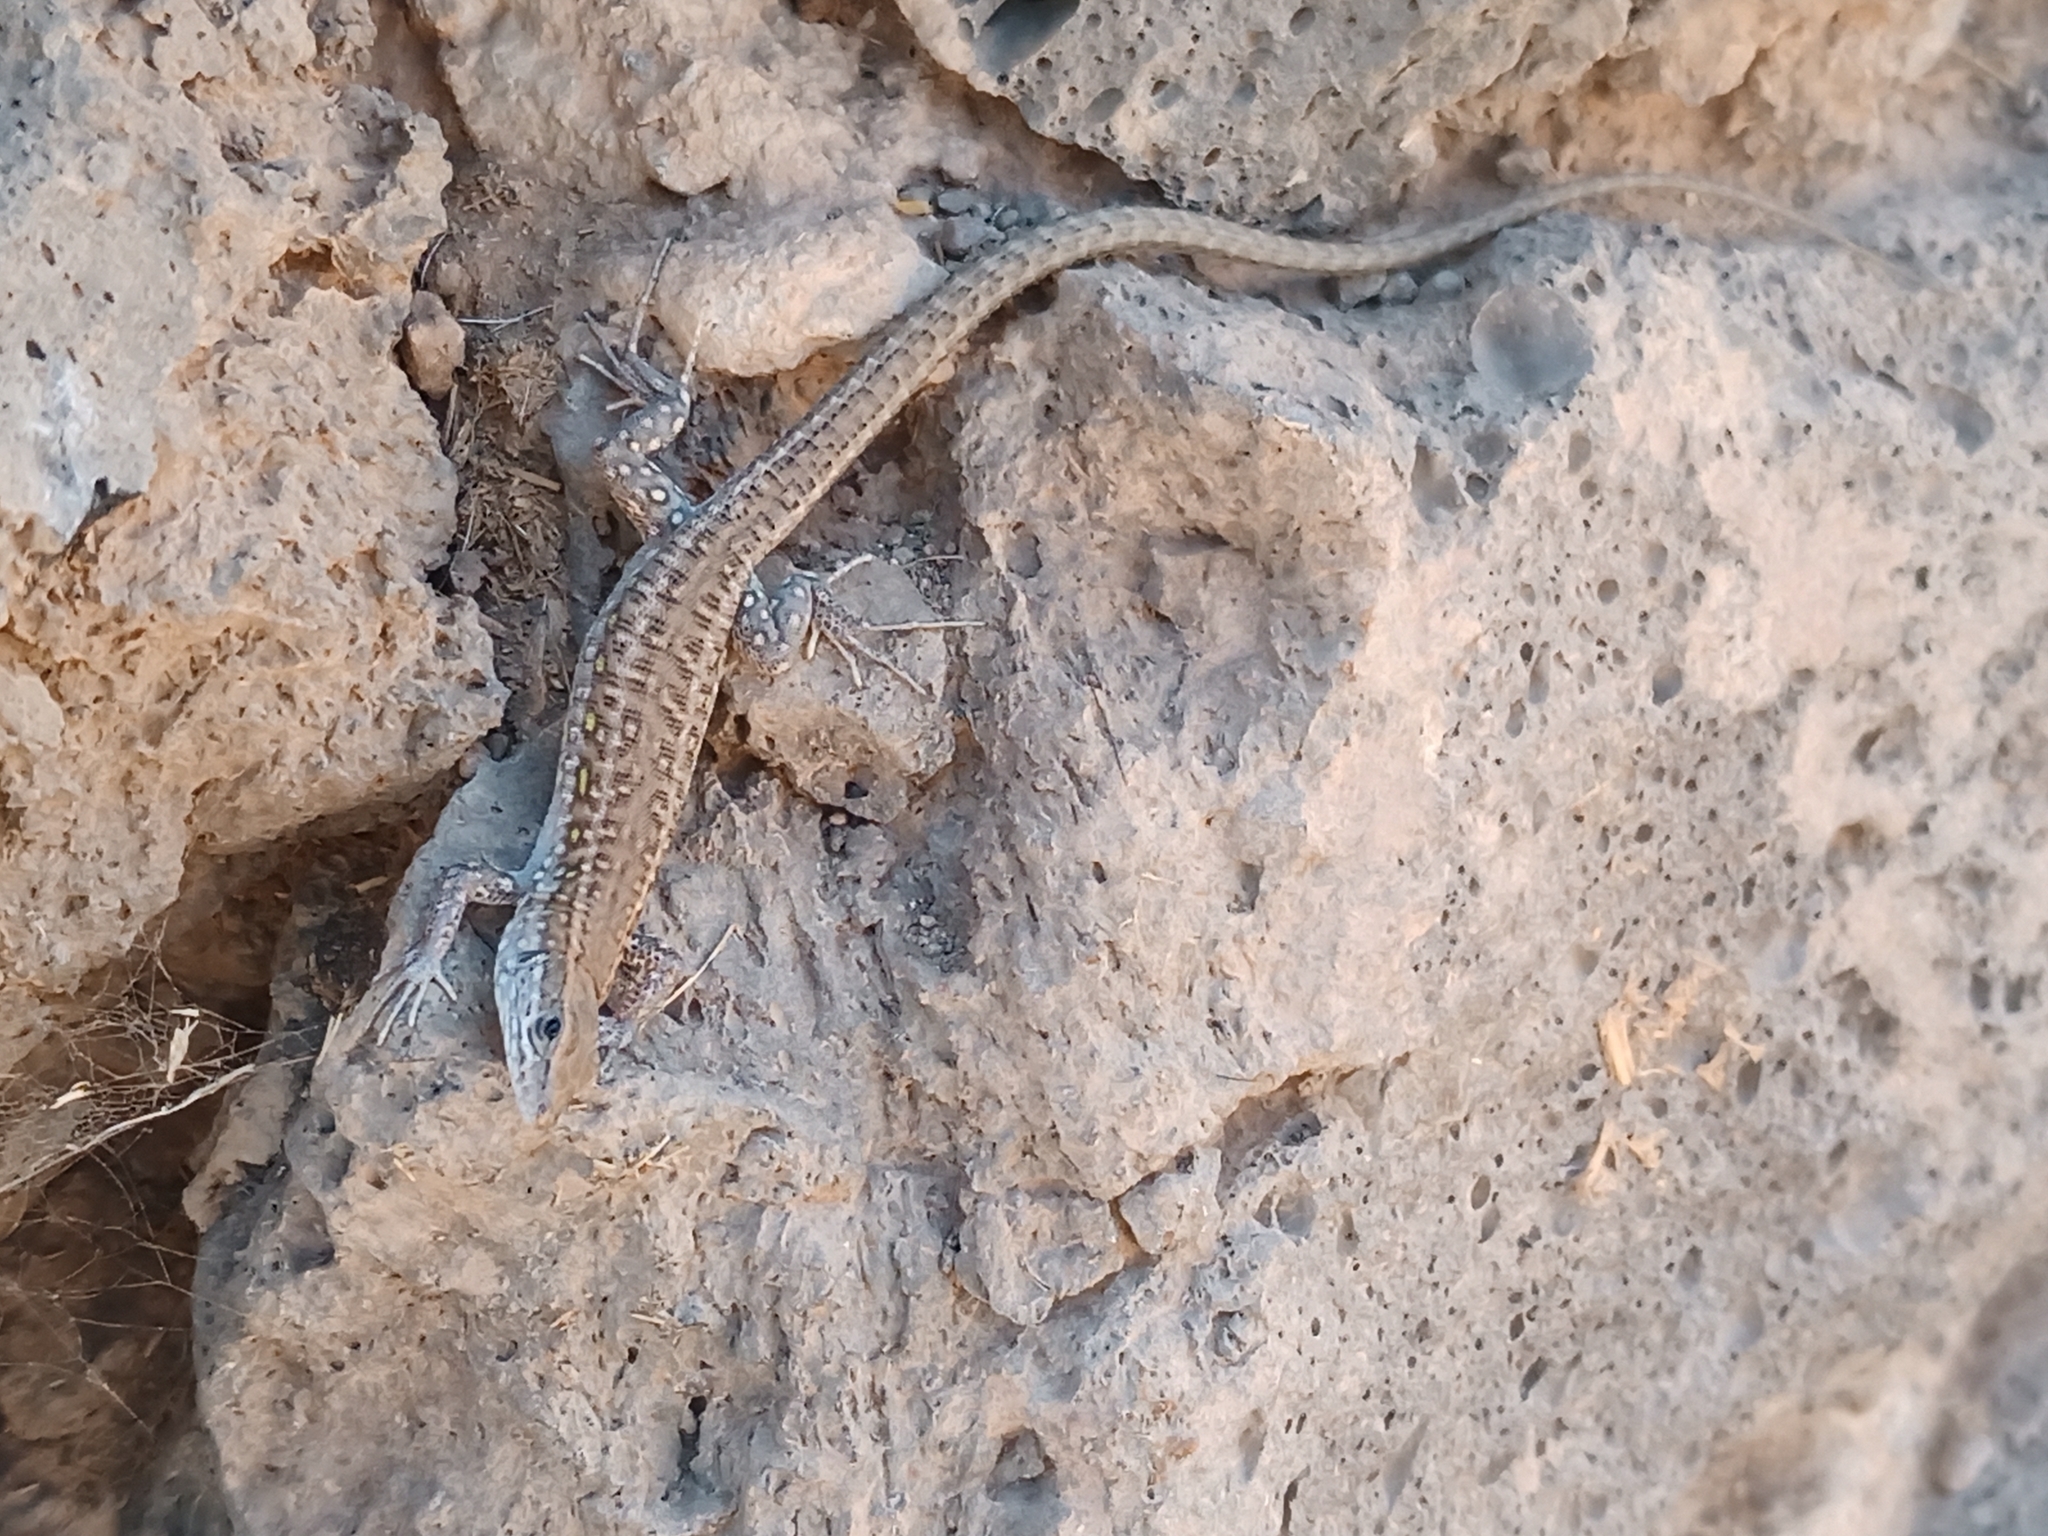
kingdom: Animalia
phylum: Chordata
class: Squamata
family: Lacertidae
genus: Gallotia
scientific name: Gallotia atlantica
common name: Atlantic lizard
